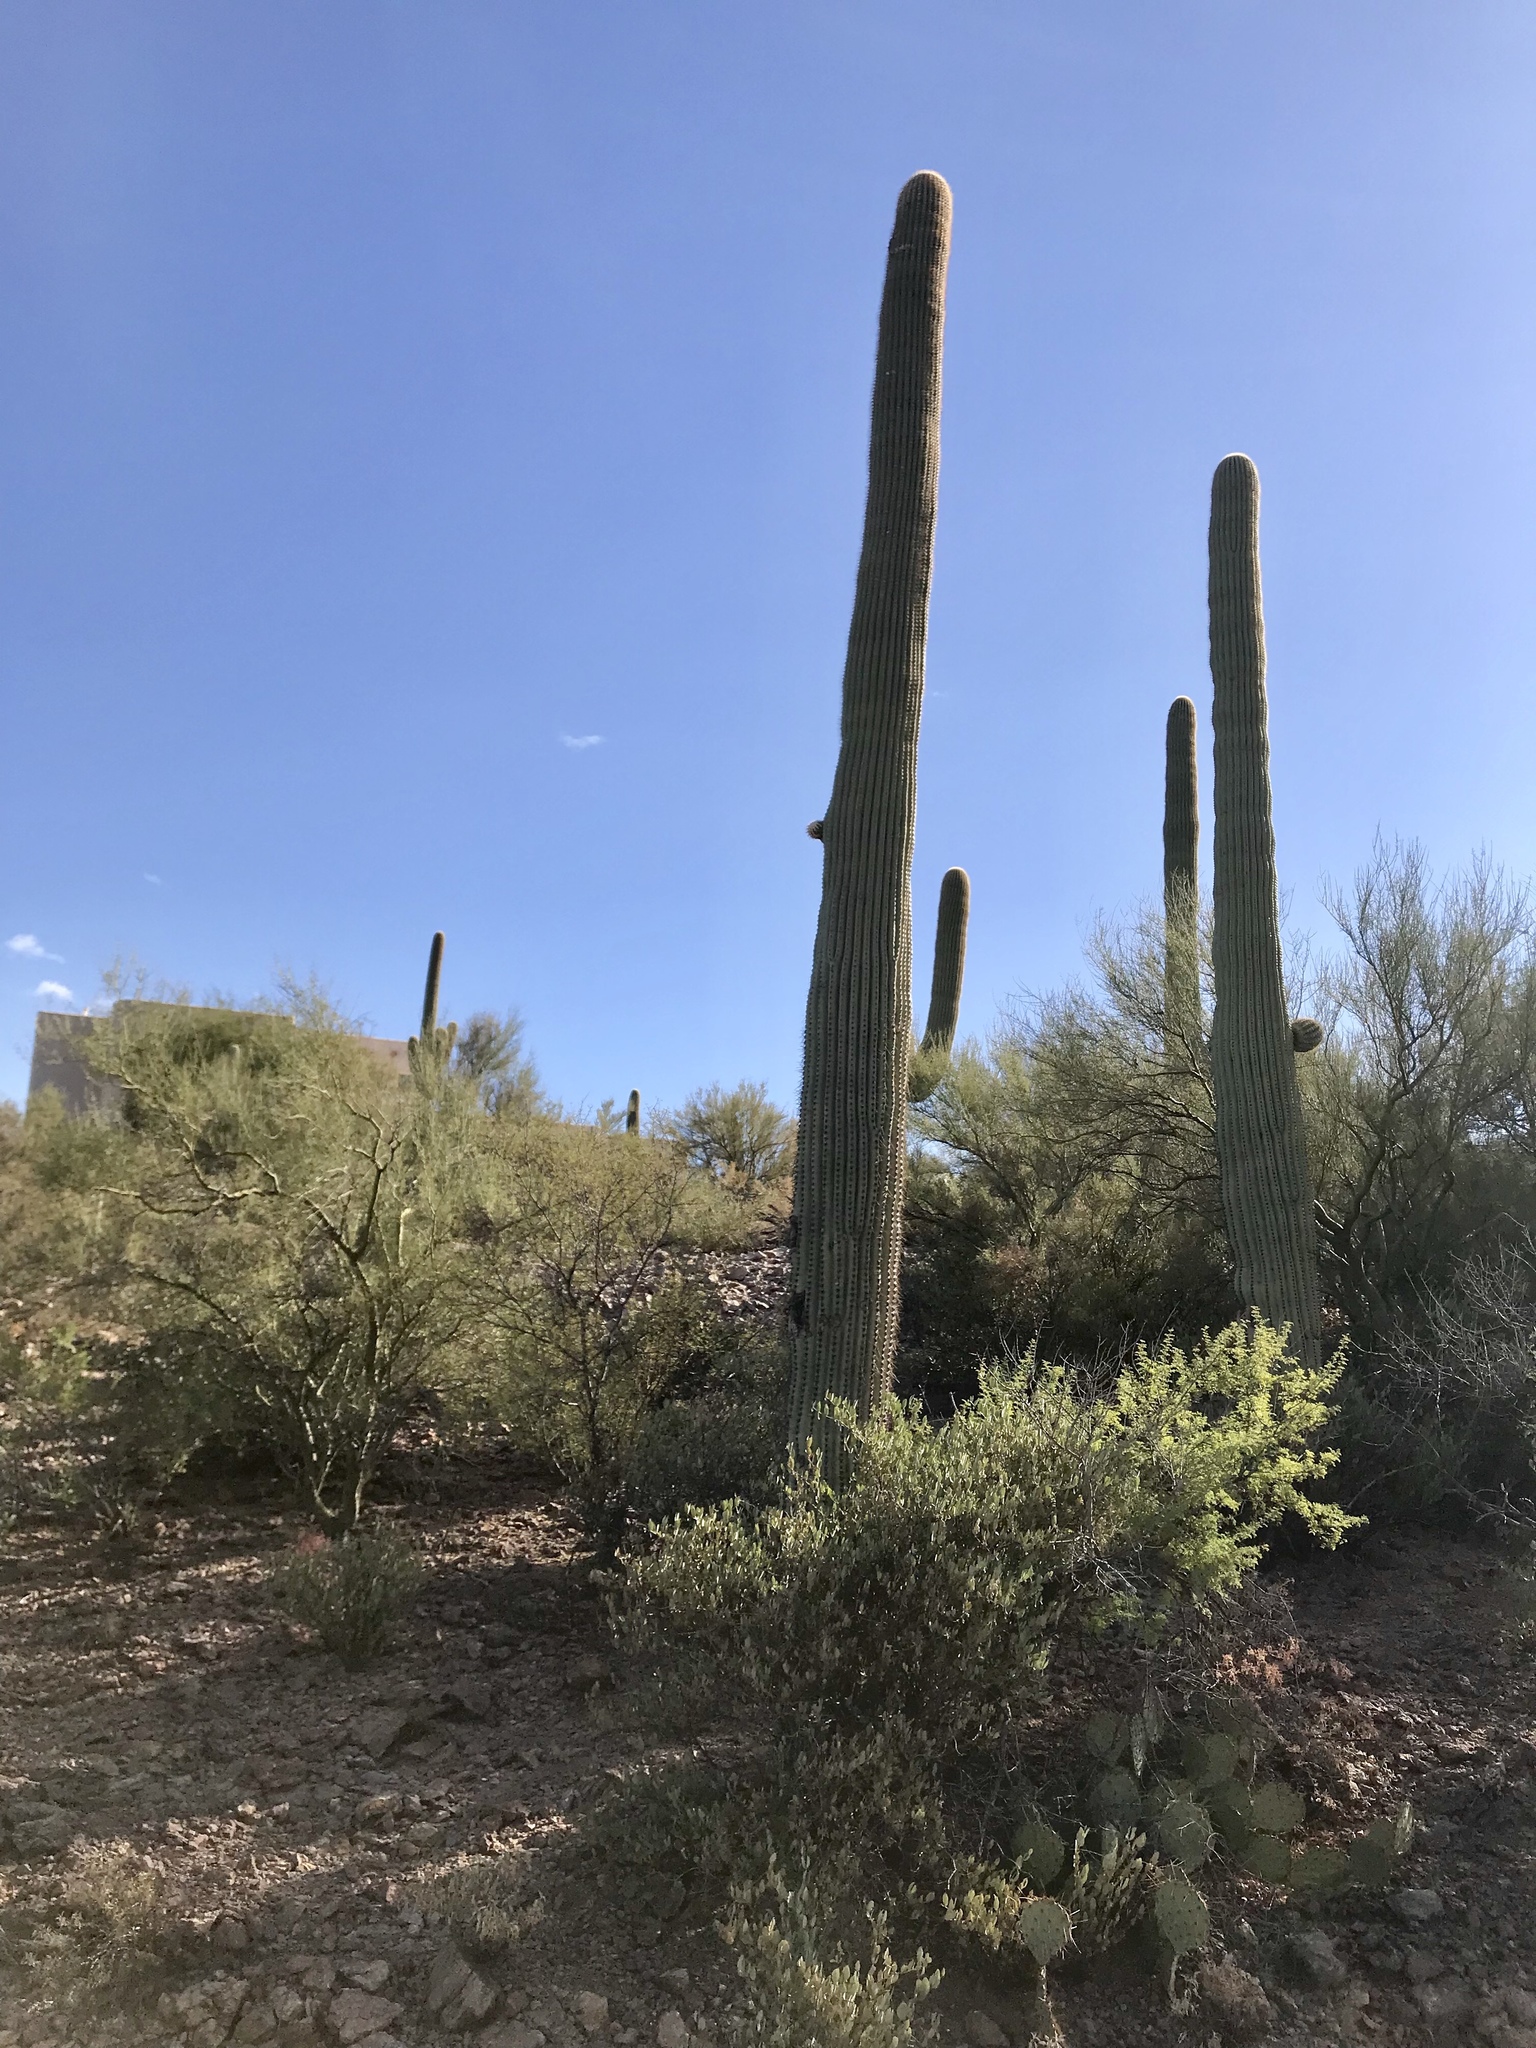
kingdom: Plantae
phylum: Tracheophyta
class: Magnoliopsida
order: Caryophyllales
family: Cactaceae
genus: Carnegiea
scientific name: Carnegiea gigantea
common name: Saguaro
